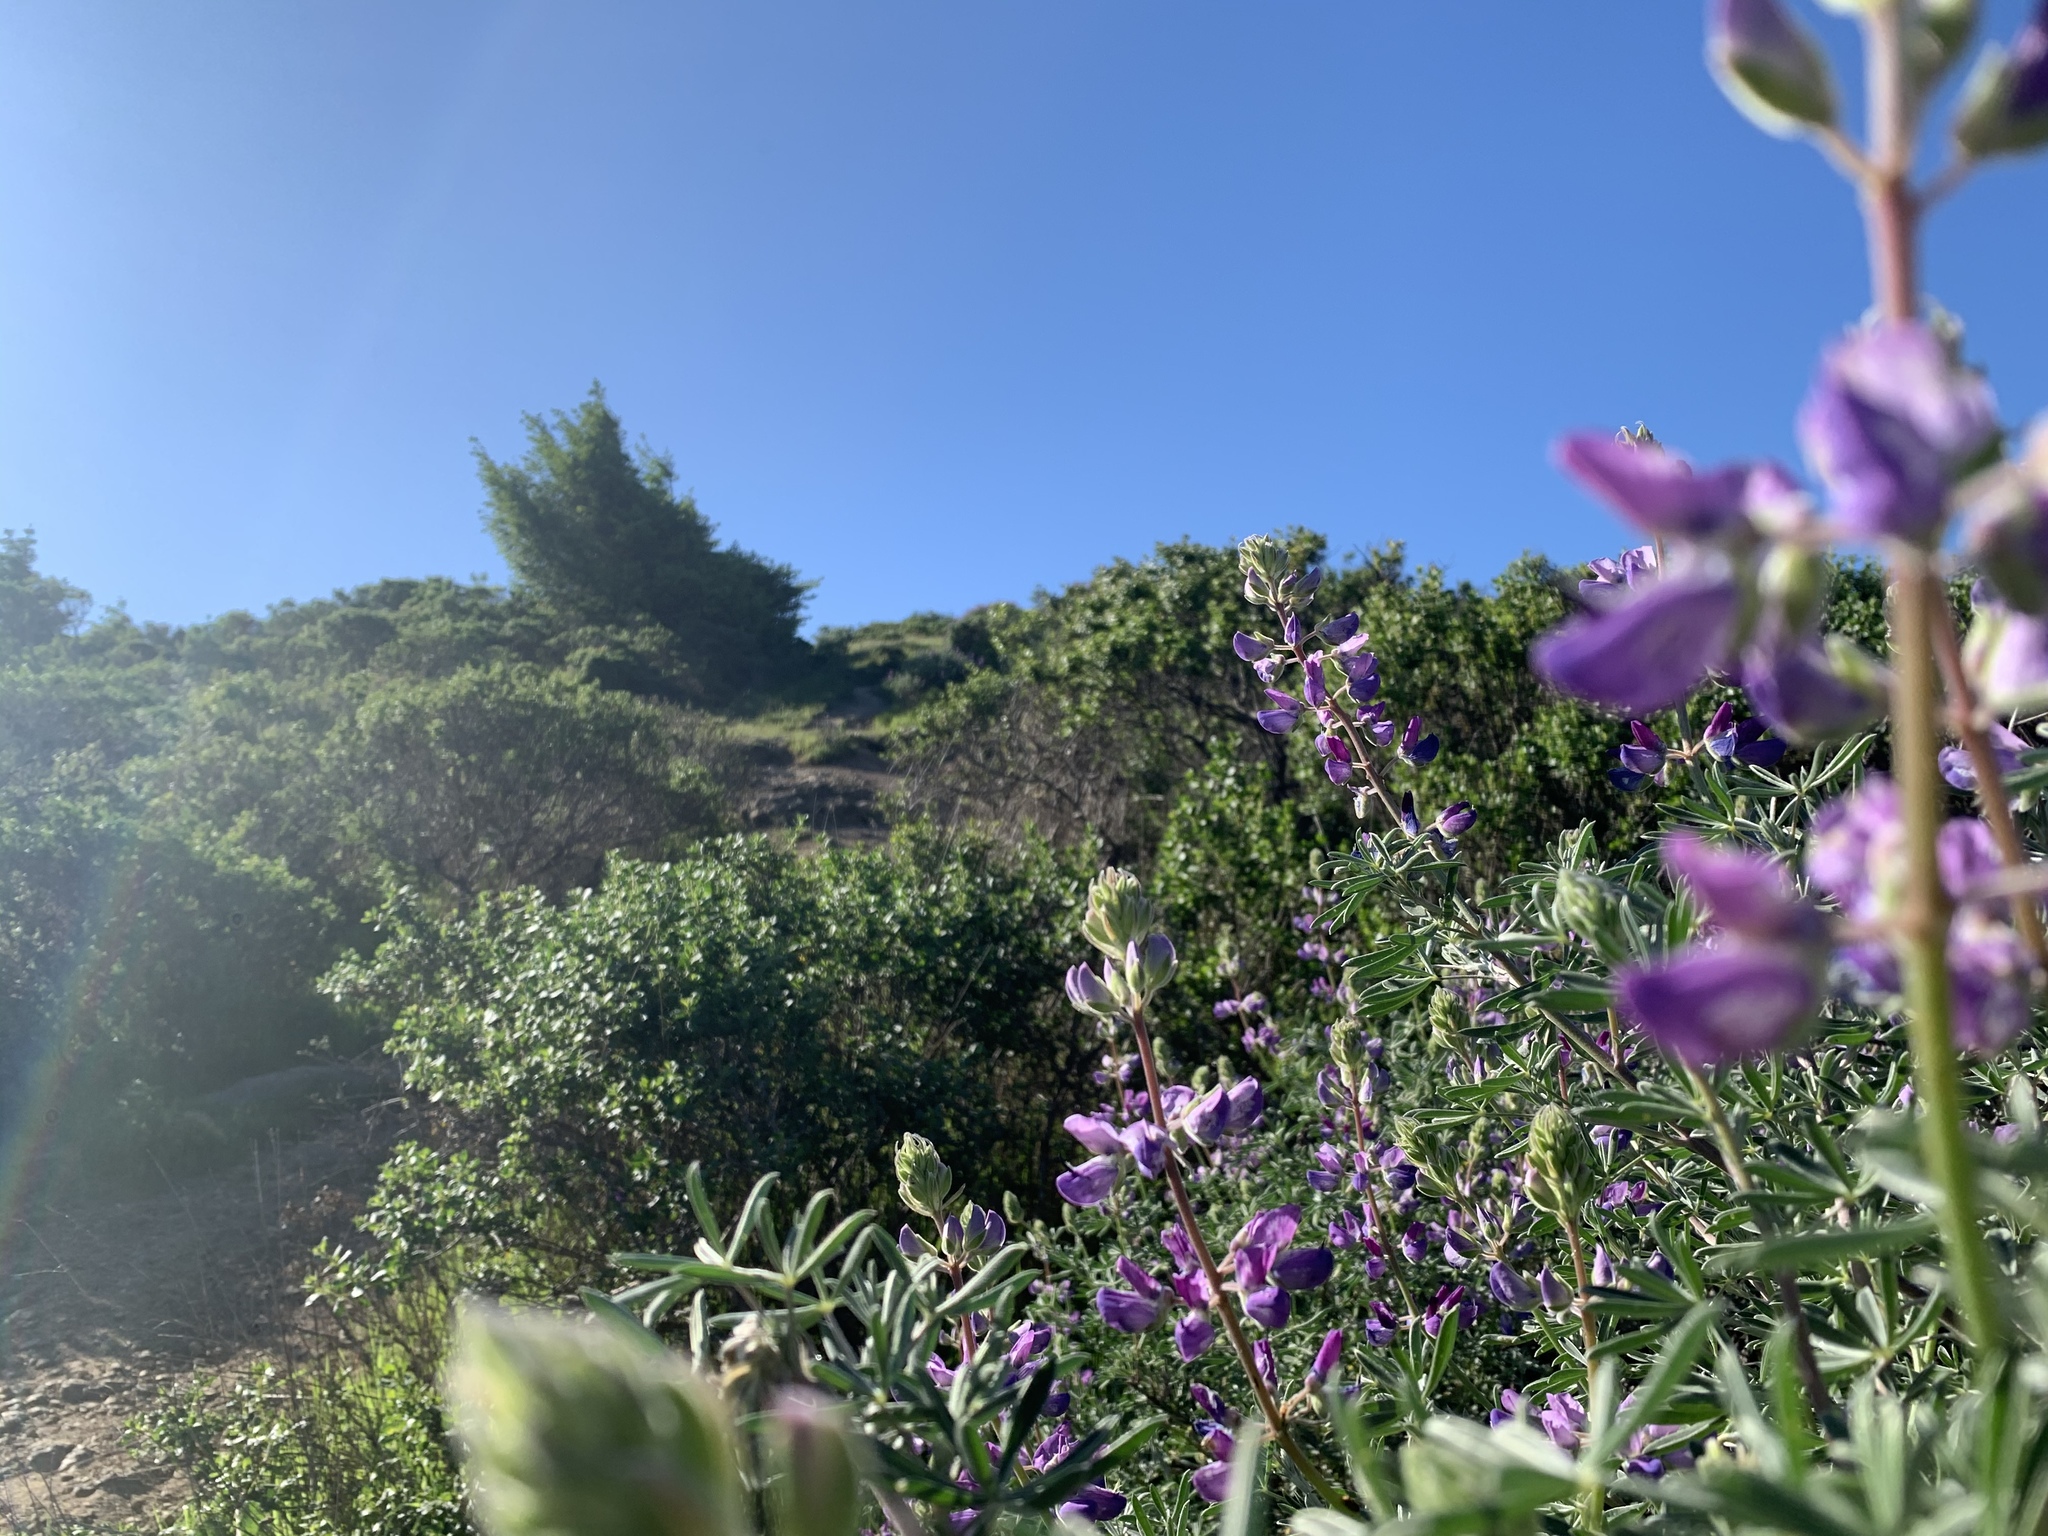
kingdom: Plantae
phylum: Tracheophyta
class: Magnoliopsida
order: Fabales
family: Fabaceae
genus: Lupinus
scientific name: Lupinus albifrons
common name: Foothill lupine
